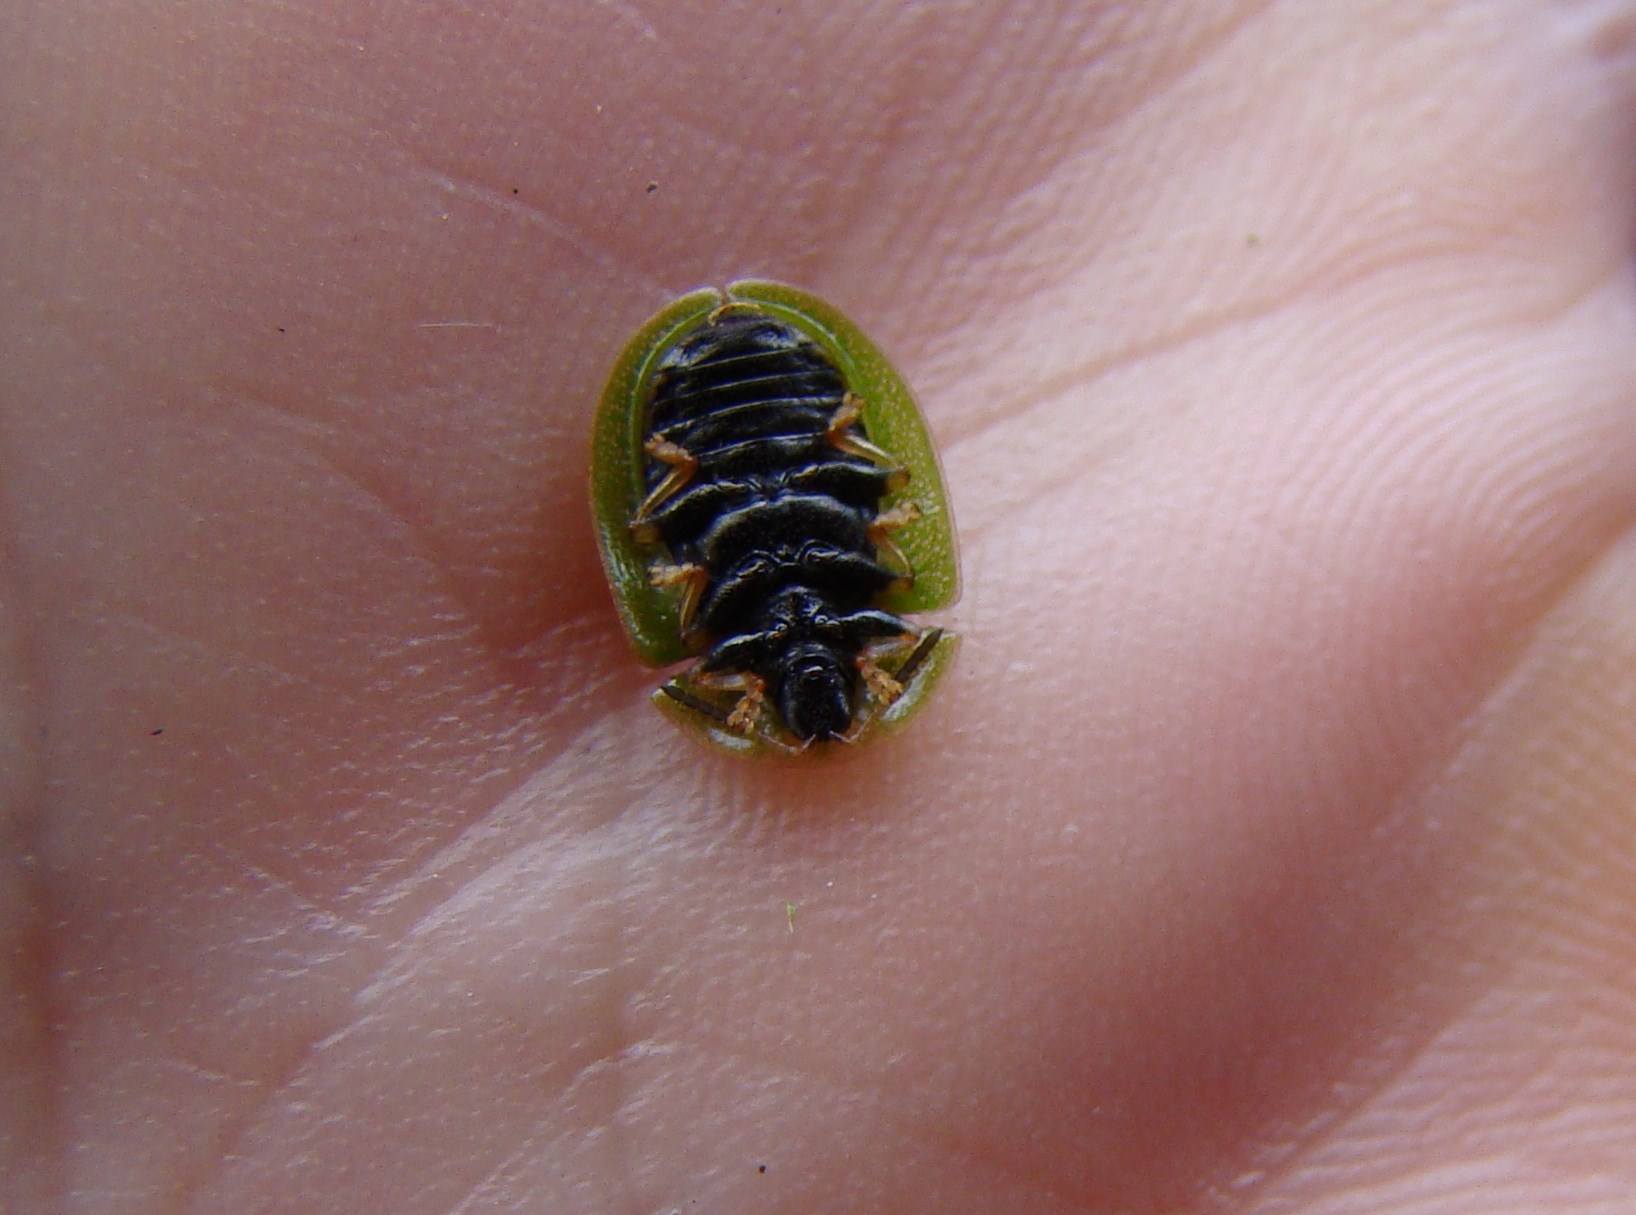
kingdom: Animalia
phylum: Arthropoda
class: Insecta
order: Coleoptera
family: Chrysomelidae
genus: Cassida
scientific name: Cassida rubiginosa
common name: Thistle tortoise beetle
